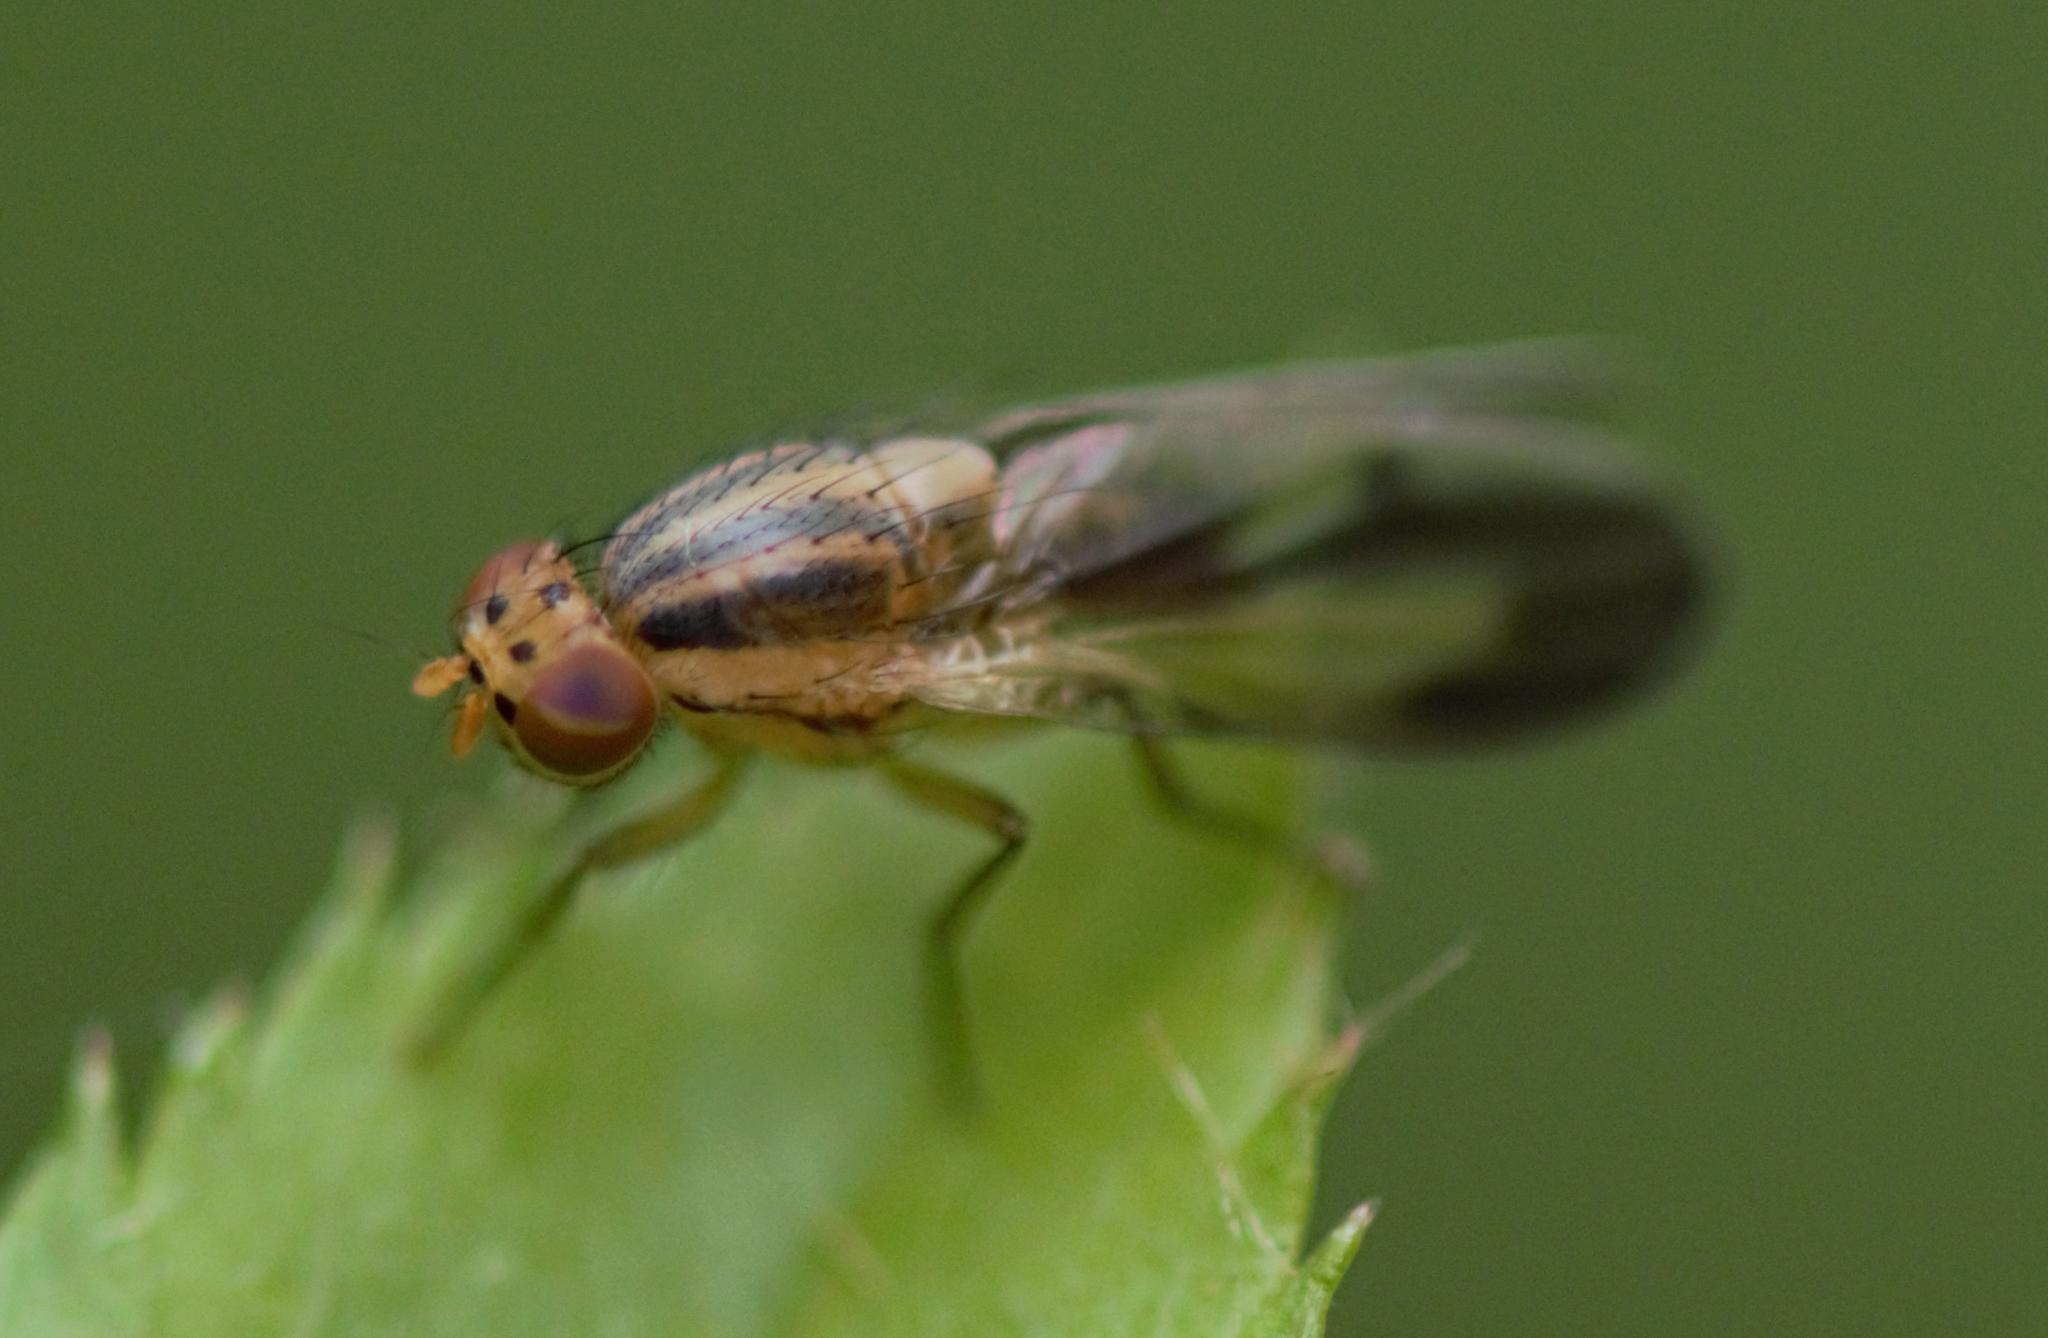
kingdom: Animalia
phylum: Arthropoda
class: Insecta
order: Diptera
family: Lauxaniidae
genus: Peplomyza
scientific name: Peplomyza litura
